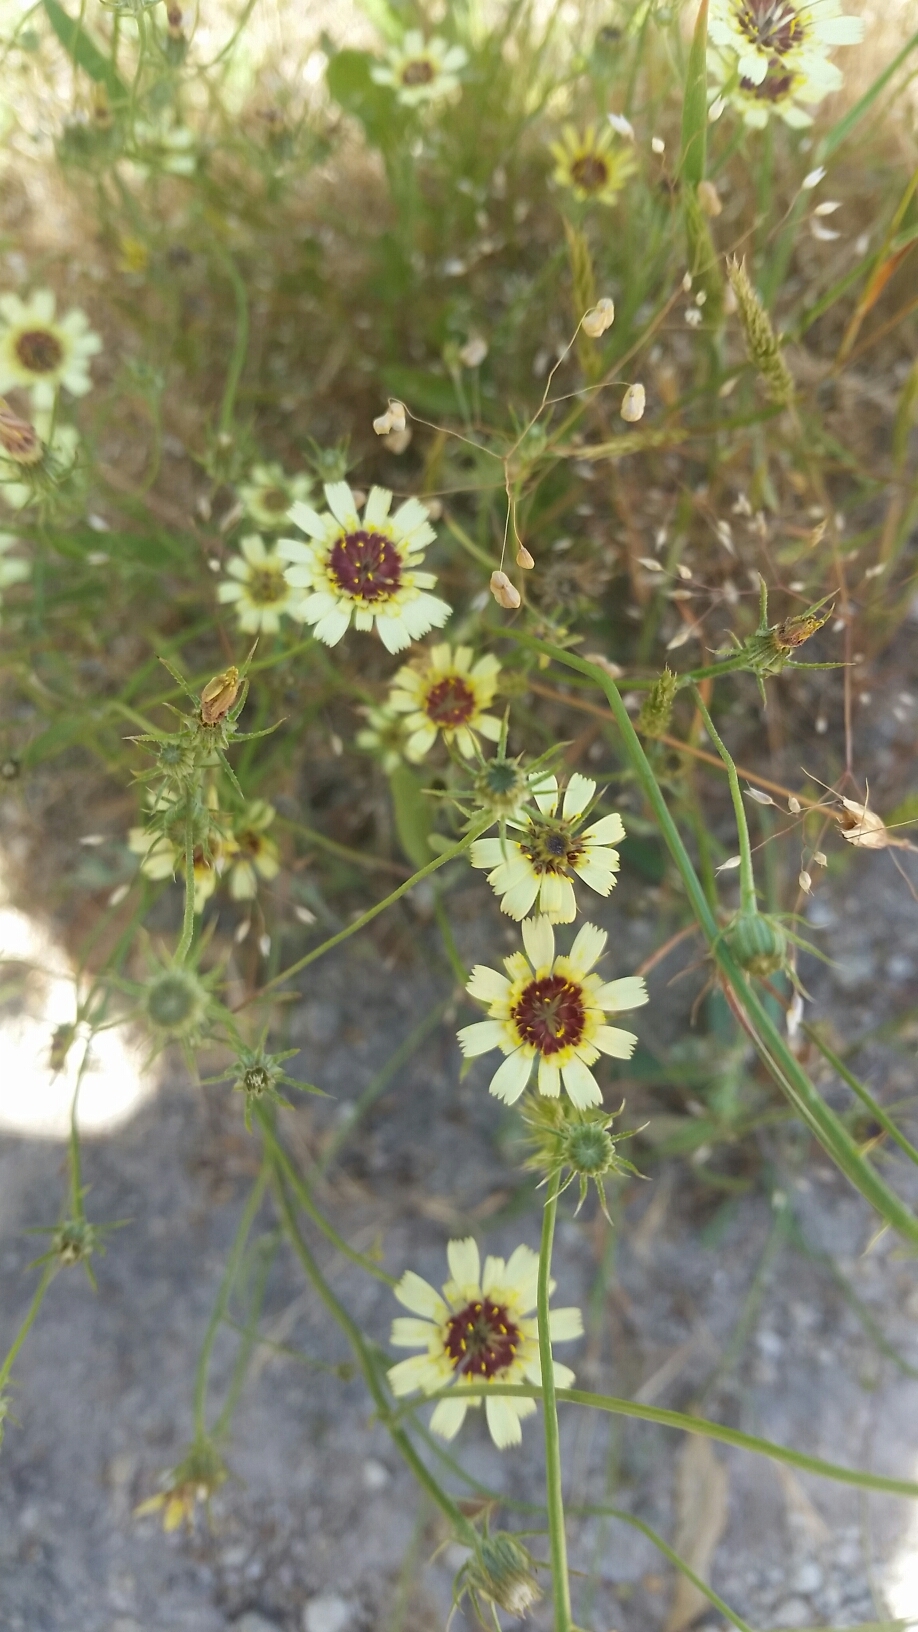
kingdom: Plantae
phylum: Tracheophyta
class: Magnoliopsida
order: Asterales
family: Asteraceae
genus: Tolpis
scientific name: Tolpis barbata
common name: Yellow hawkweed
